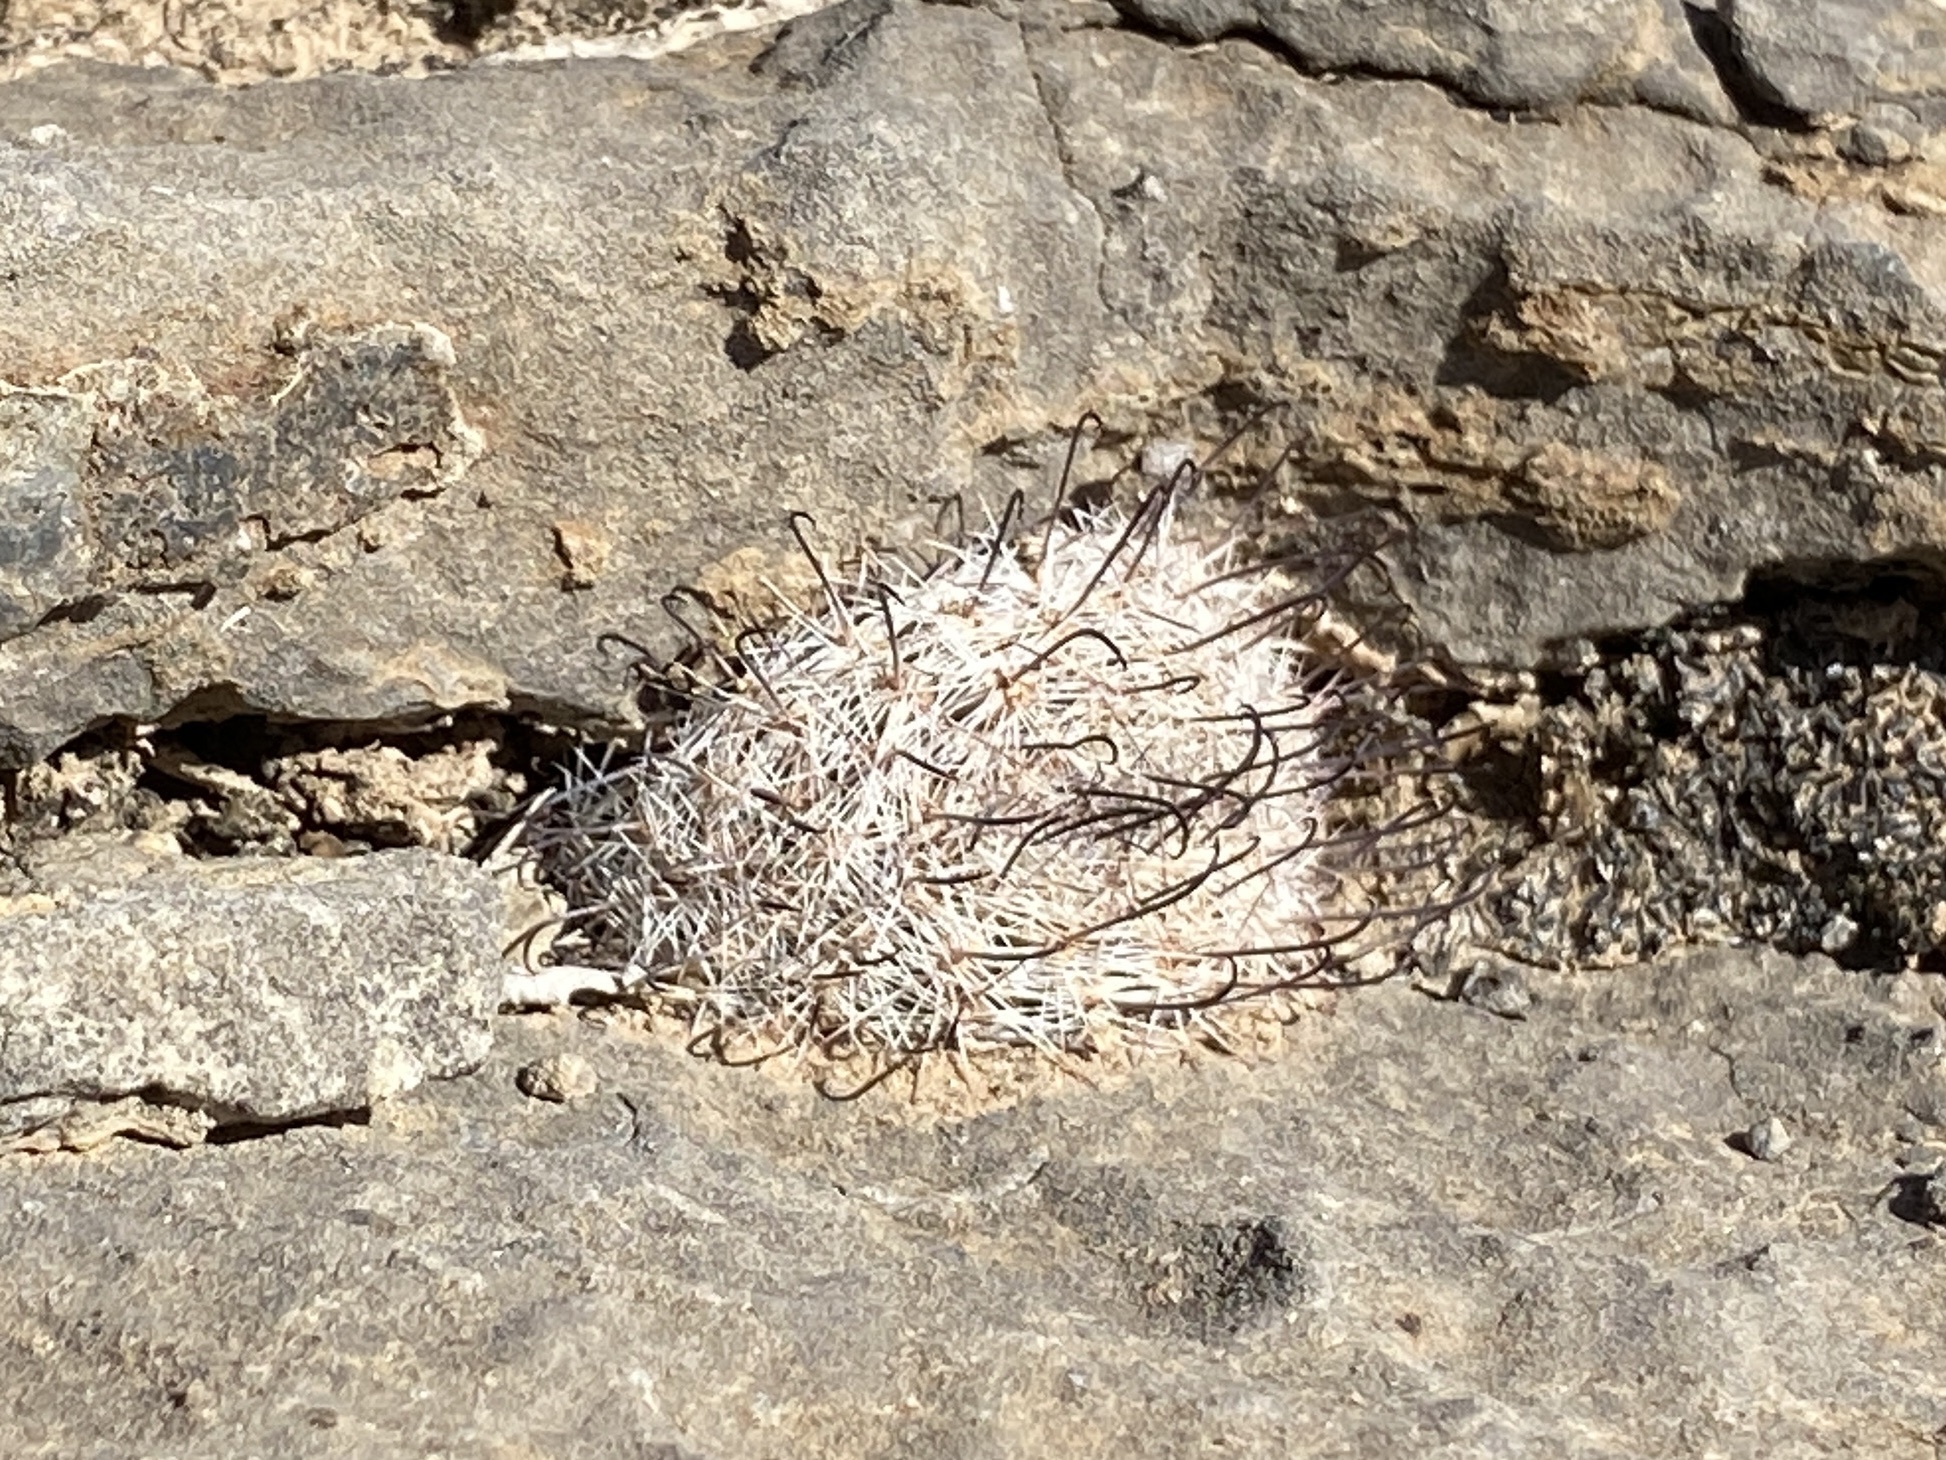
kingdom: Plantae
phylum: Tracheophyta
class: Magnoliopsida
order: Caryophyllales
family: Cactaceae
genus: Cochemiea
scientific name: Cochemiea grahamii
